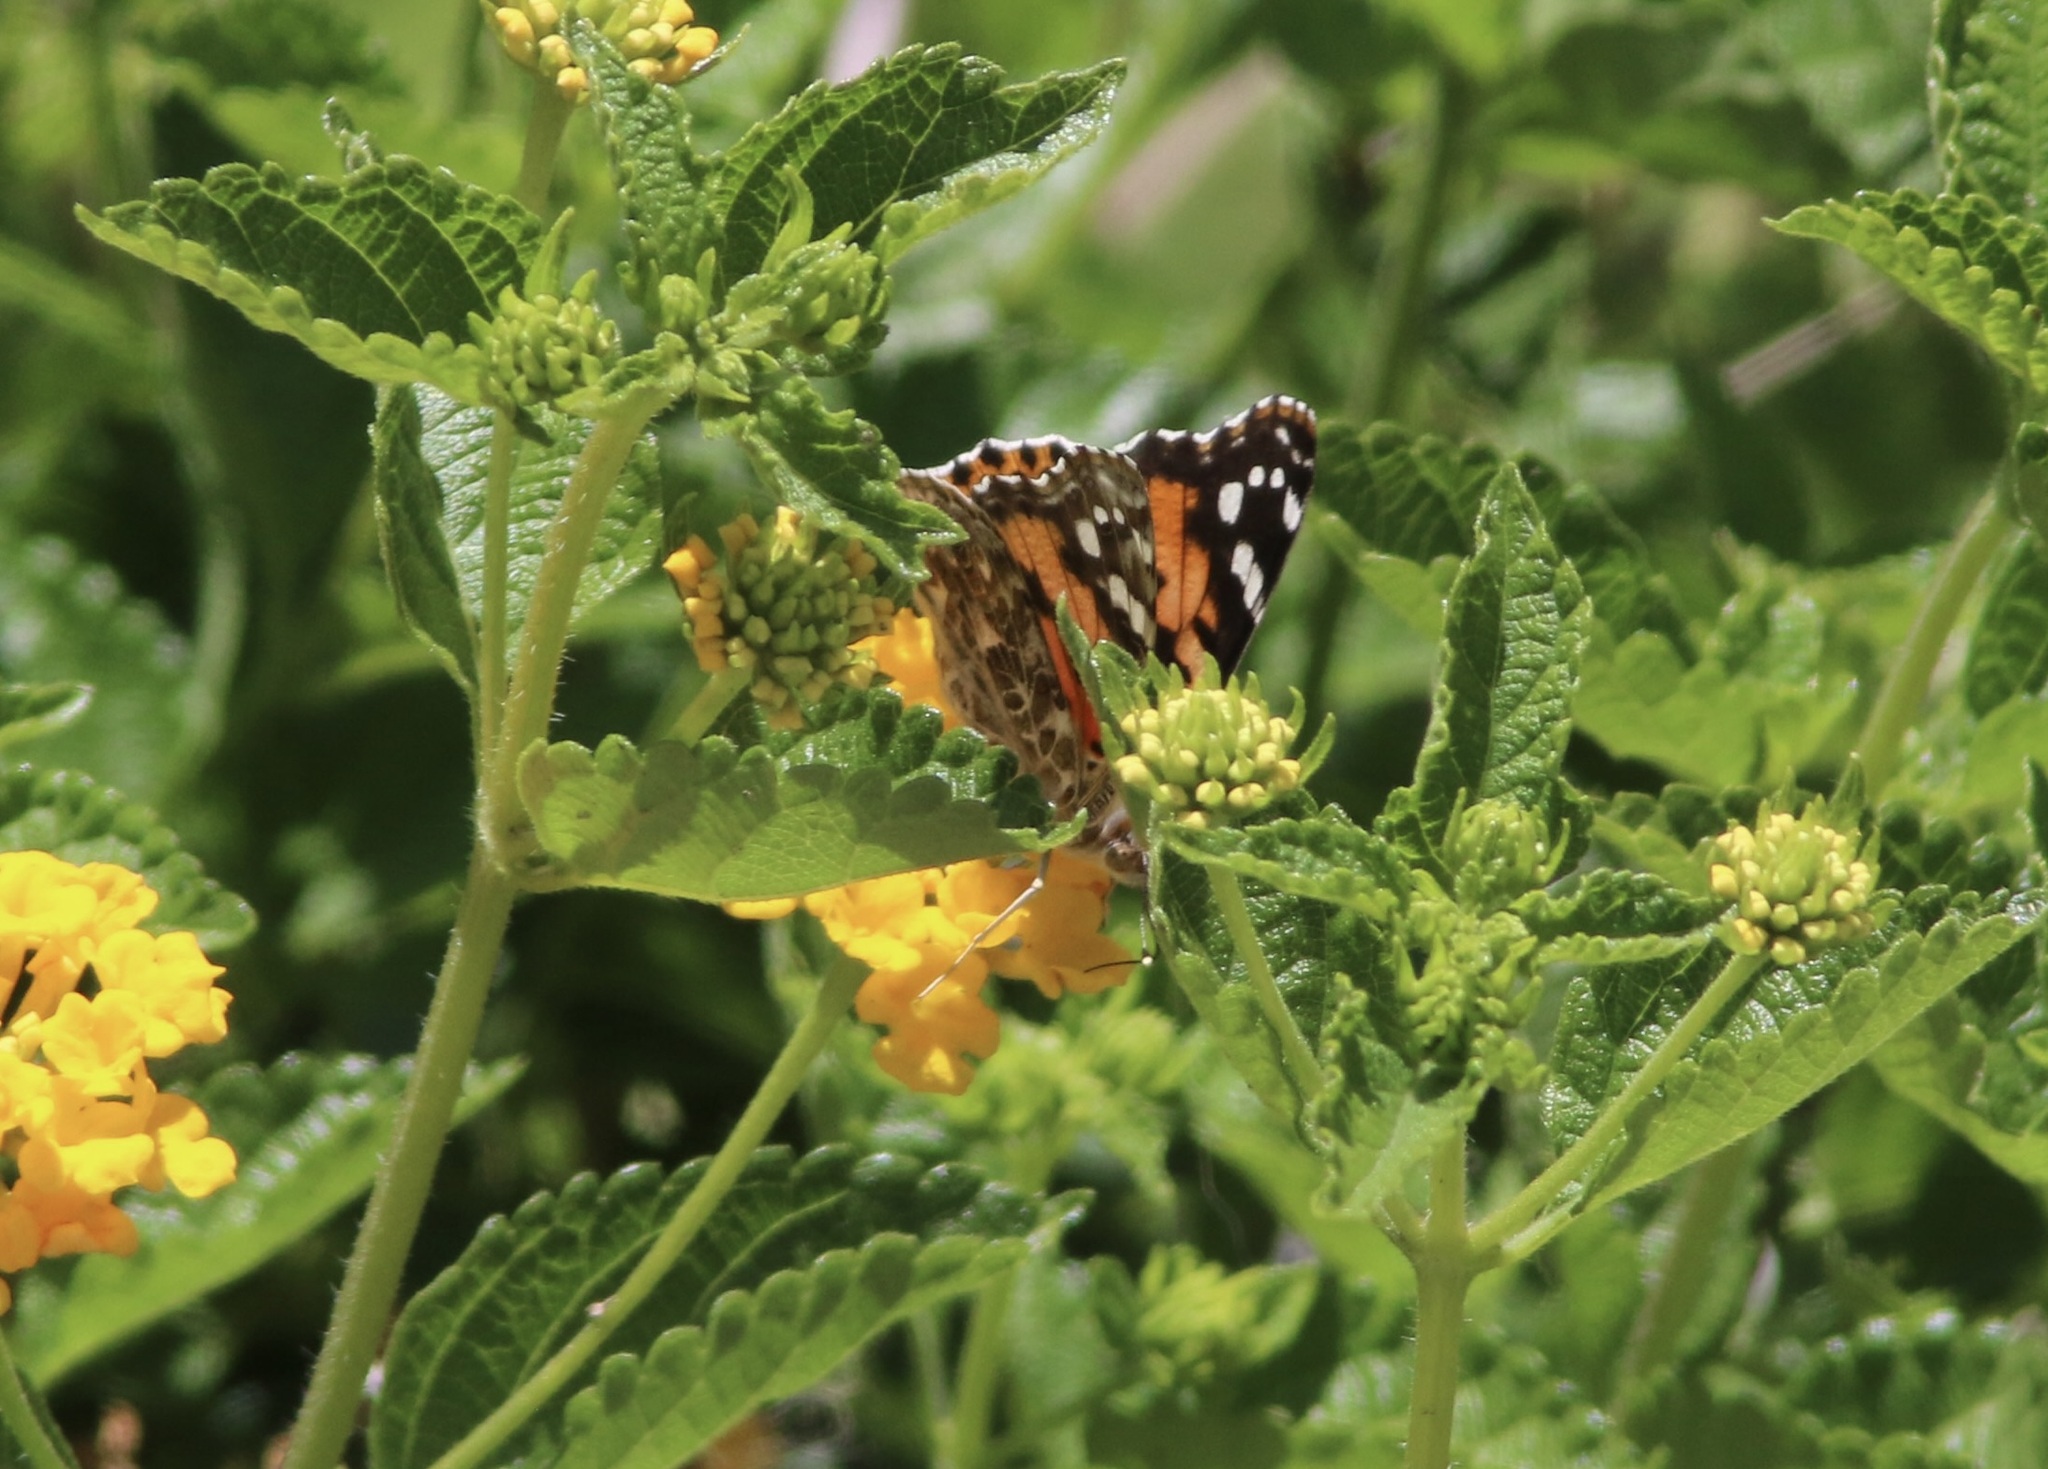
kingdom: Animalia
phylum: Arthropoda
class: Insecta
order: Lepidoptera
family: Nymphalidae
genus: Vanessa
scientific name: Vanessa cardui
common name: Painted lady
